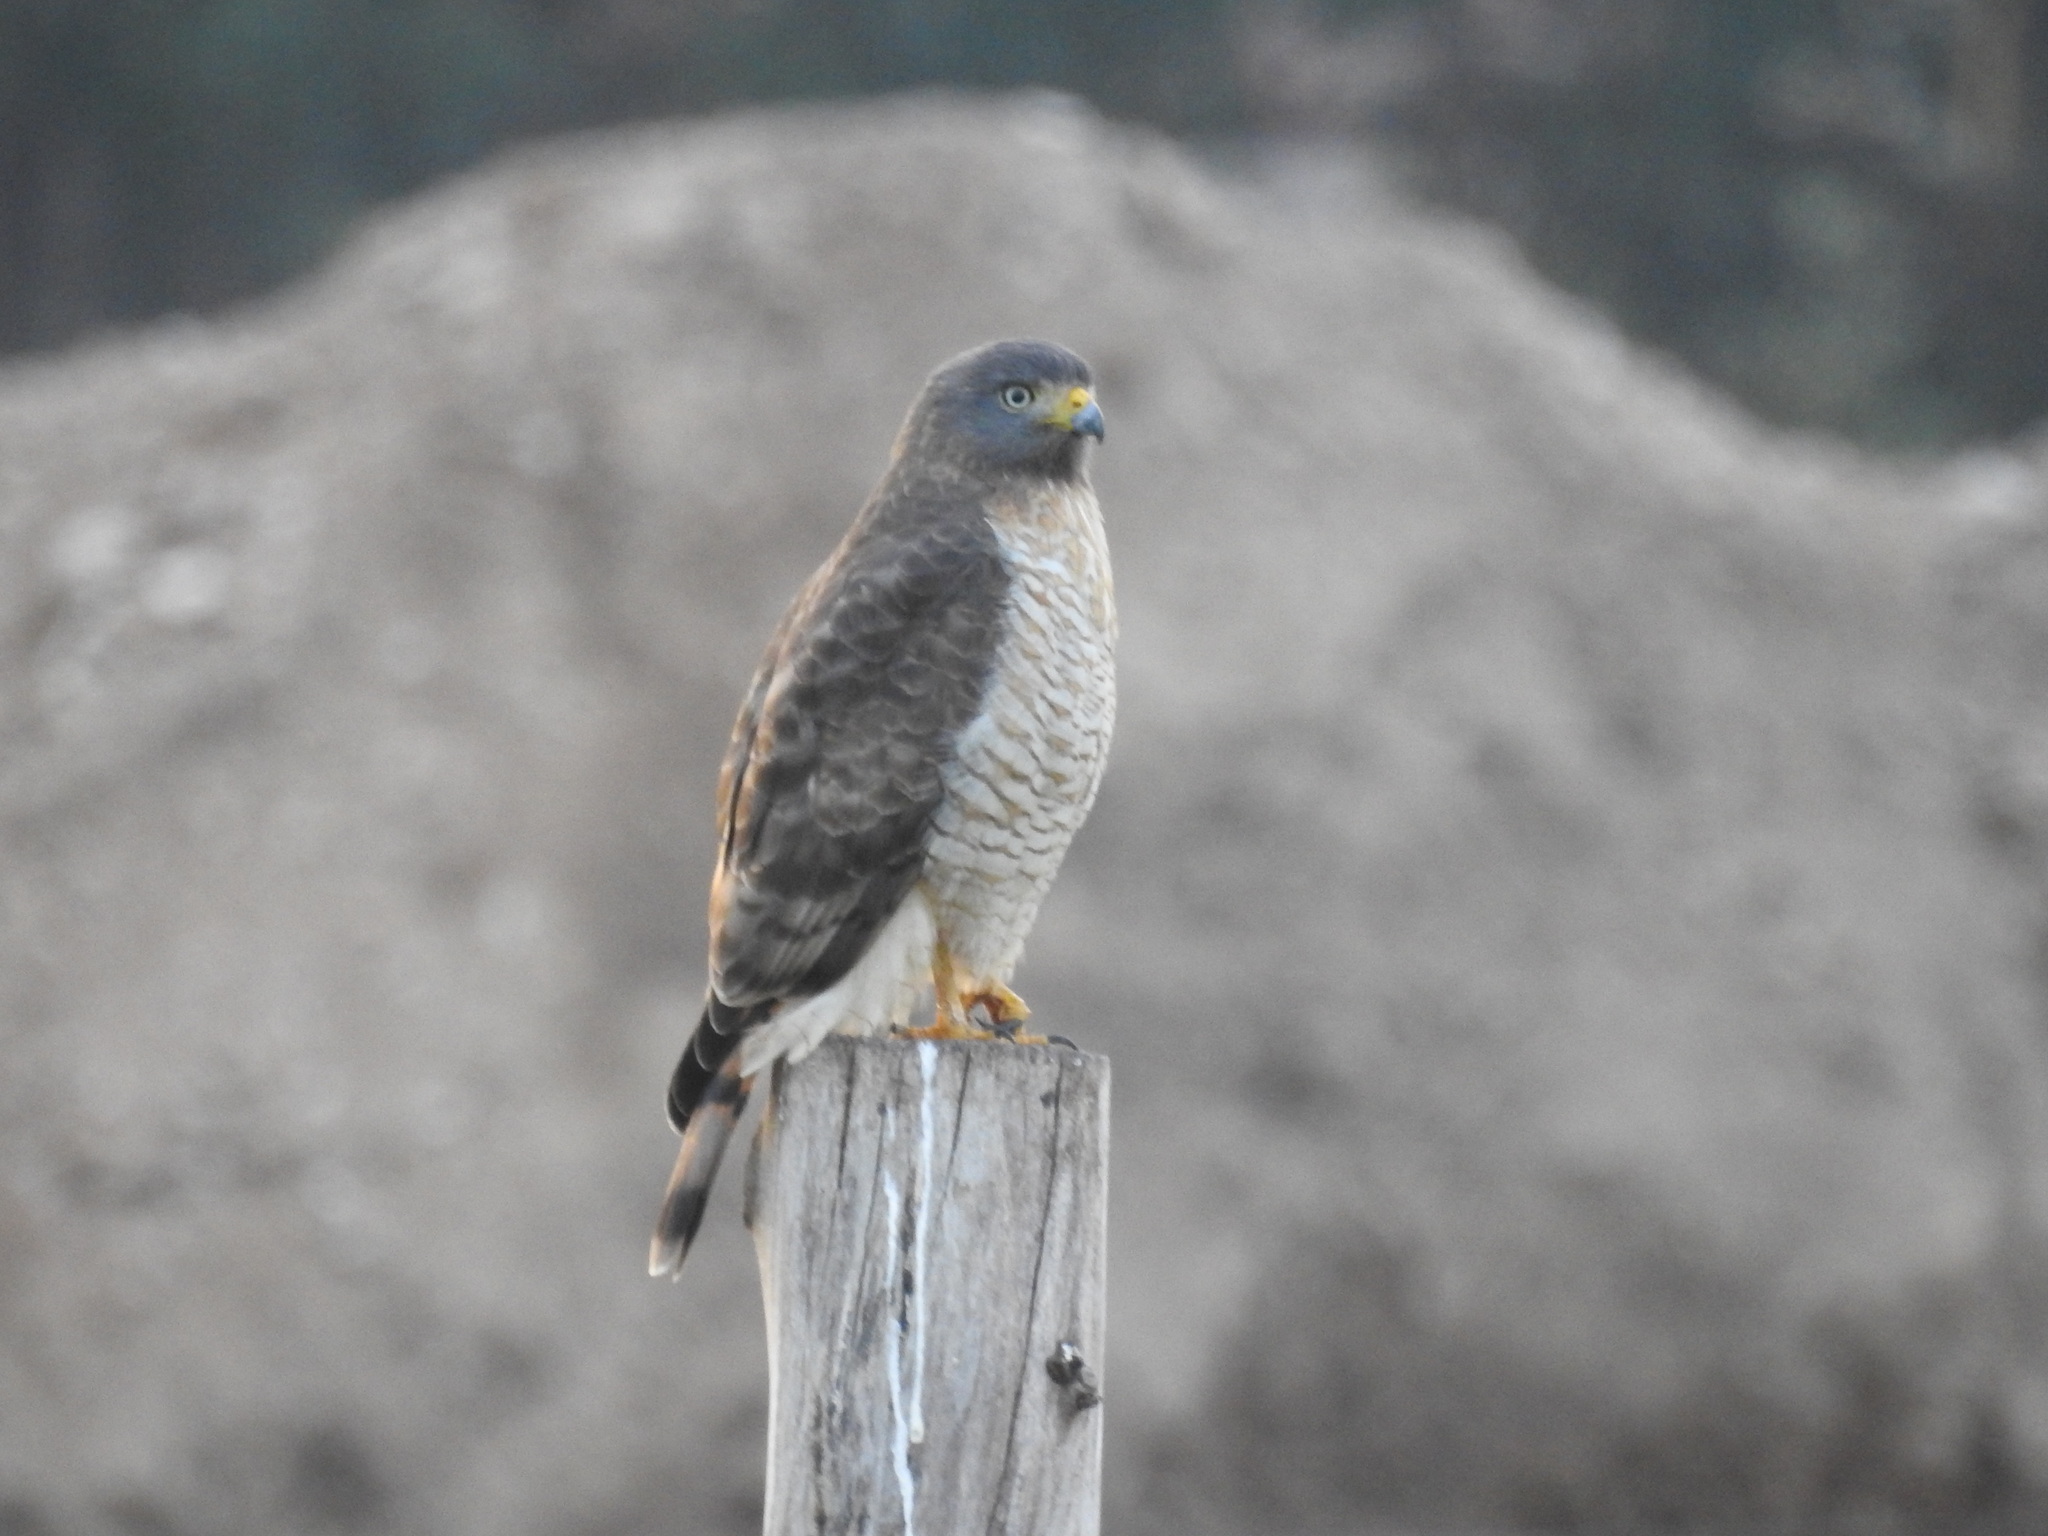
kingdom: Animalia
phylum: Chordata
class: Aves
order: Accipitriformes
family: Accipitridae
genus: Rupornis
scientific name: Rupornis magnirostris
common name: Roadside hawk
